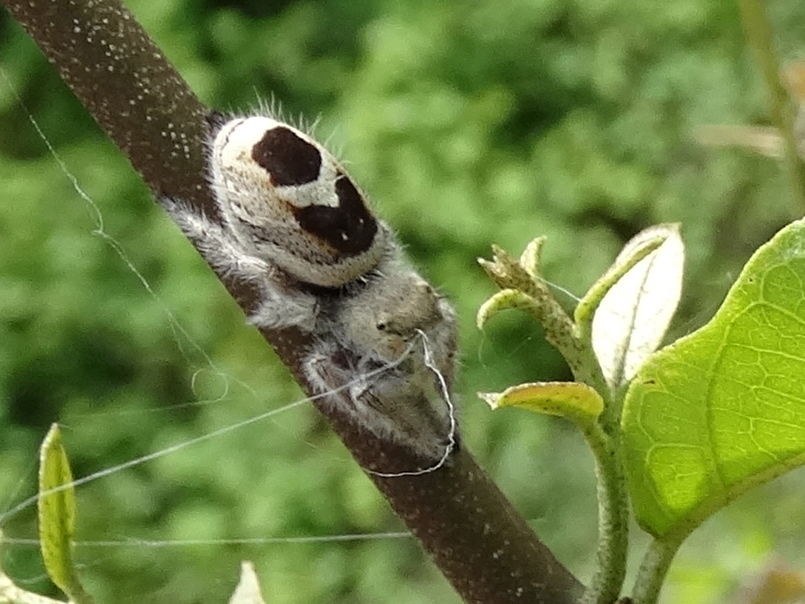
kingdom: Animalia
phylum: Arthropoda
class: Arachnida
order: Araneae
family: Salticidae
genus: Phidippus
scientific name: Phidippus pacosauritus
